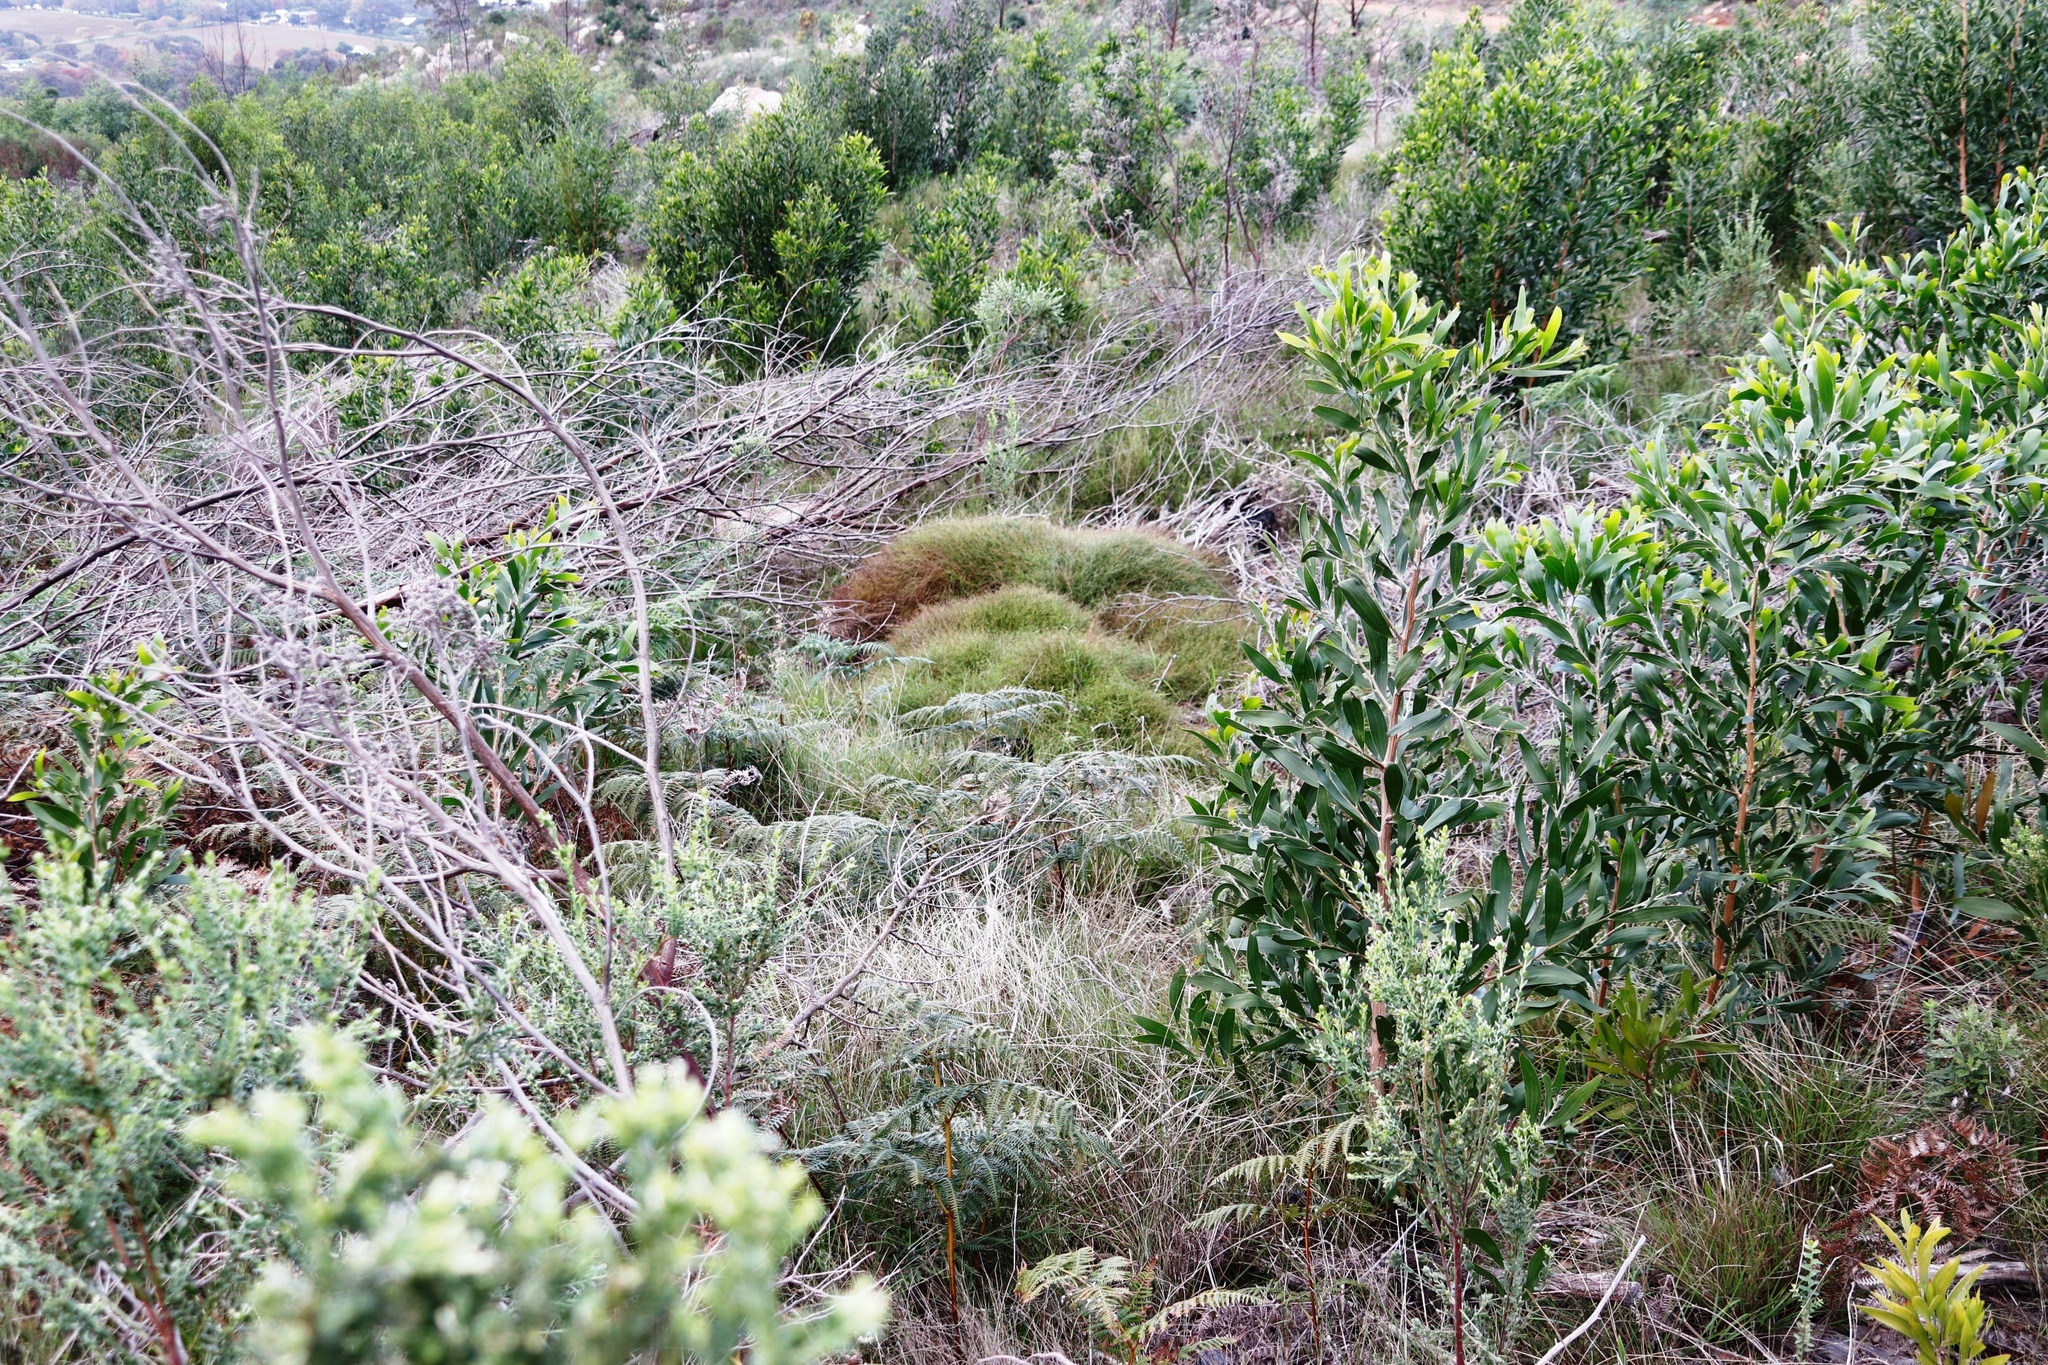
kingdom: Plantae
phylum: Tracheophyta
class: Magnoliopsida
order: Fabales
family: Fabaceae
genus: Acacia
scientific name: Acacia melanoxylon
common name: Blackwood
